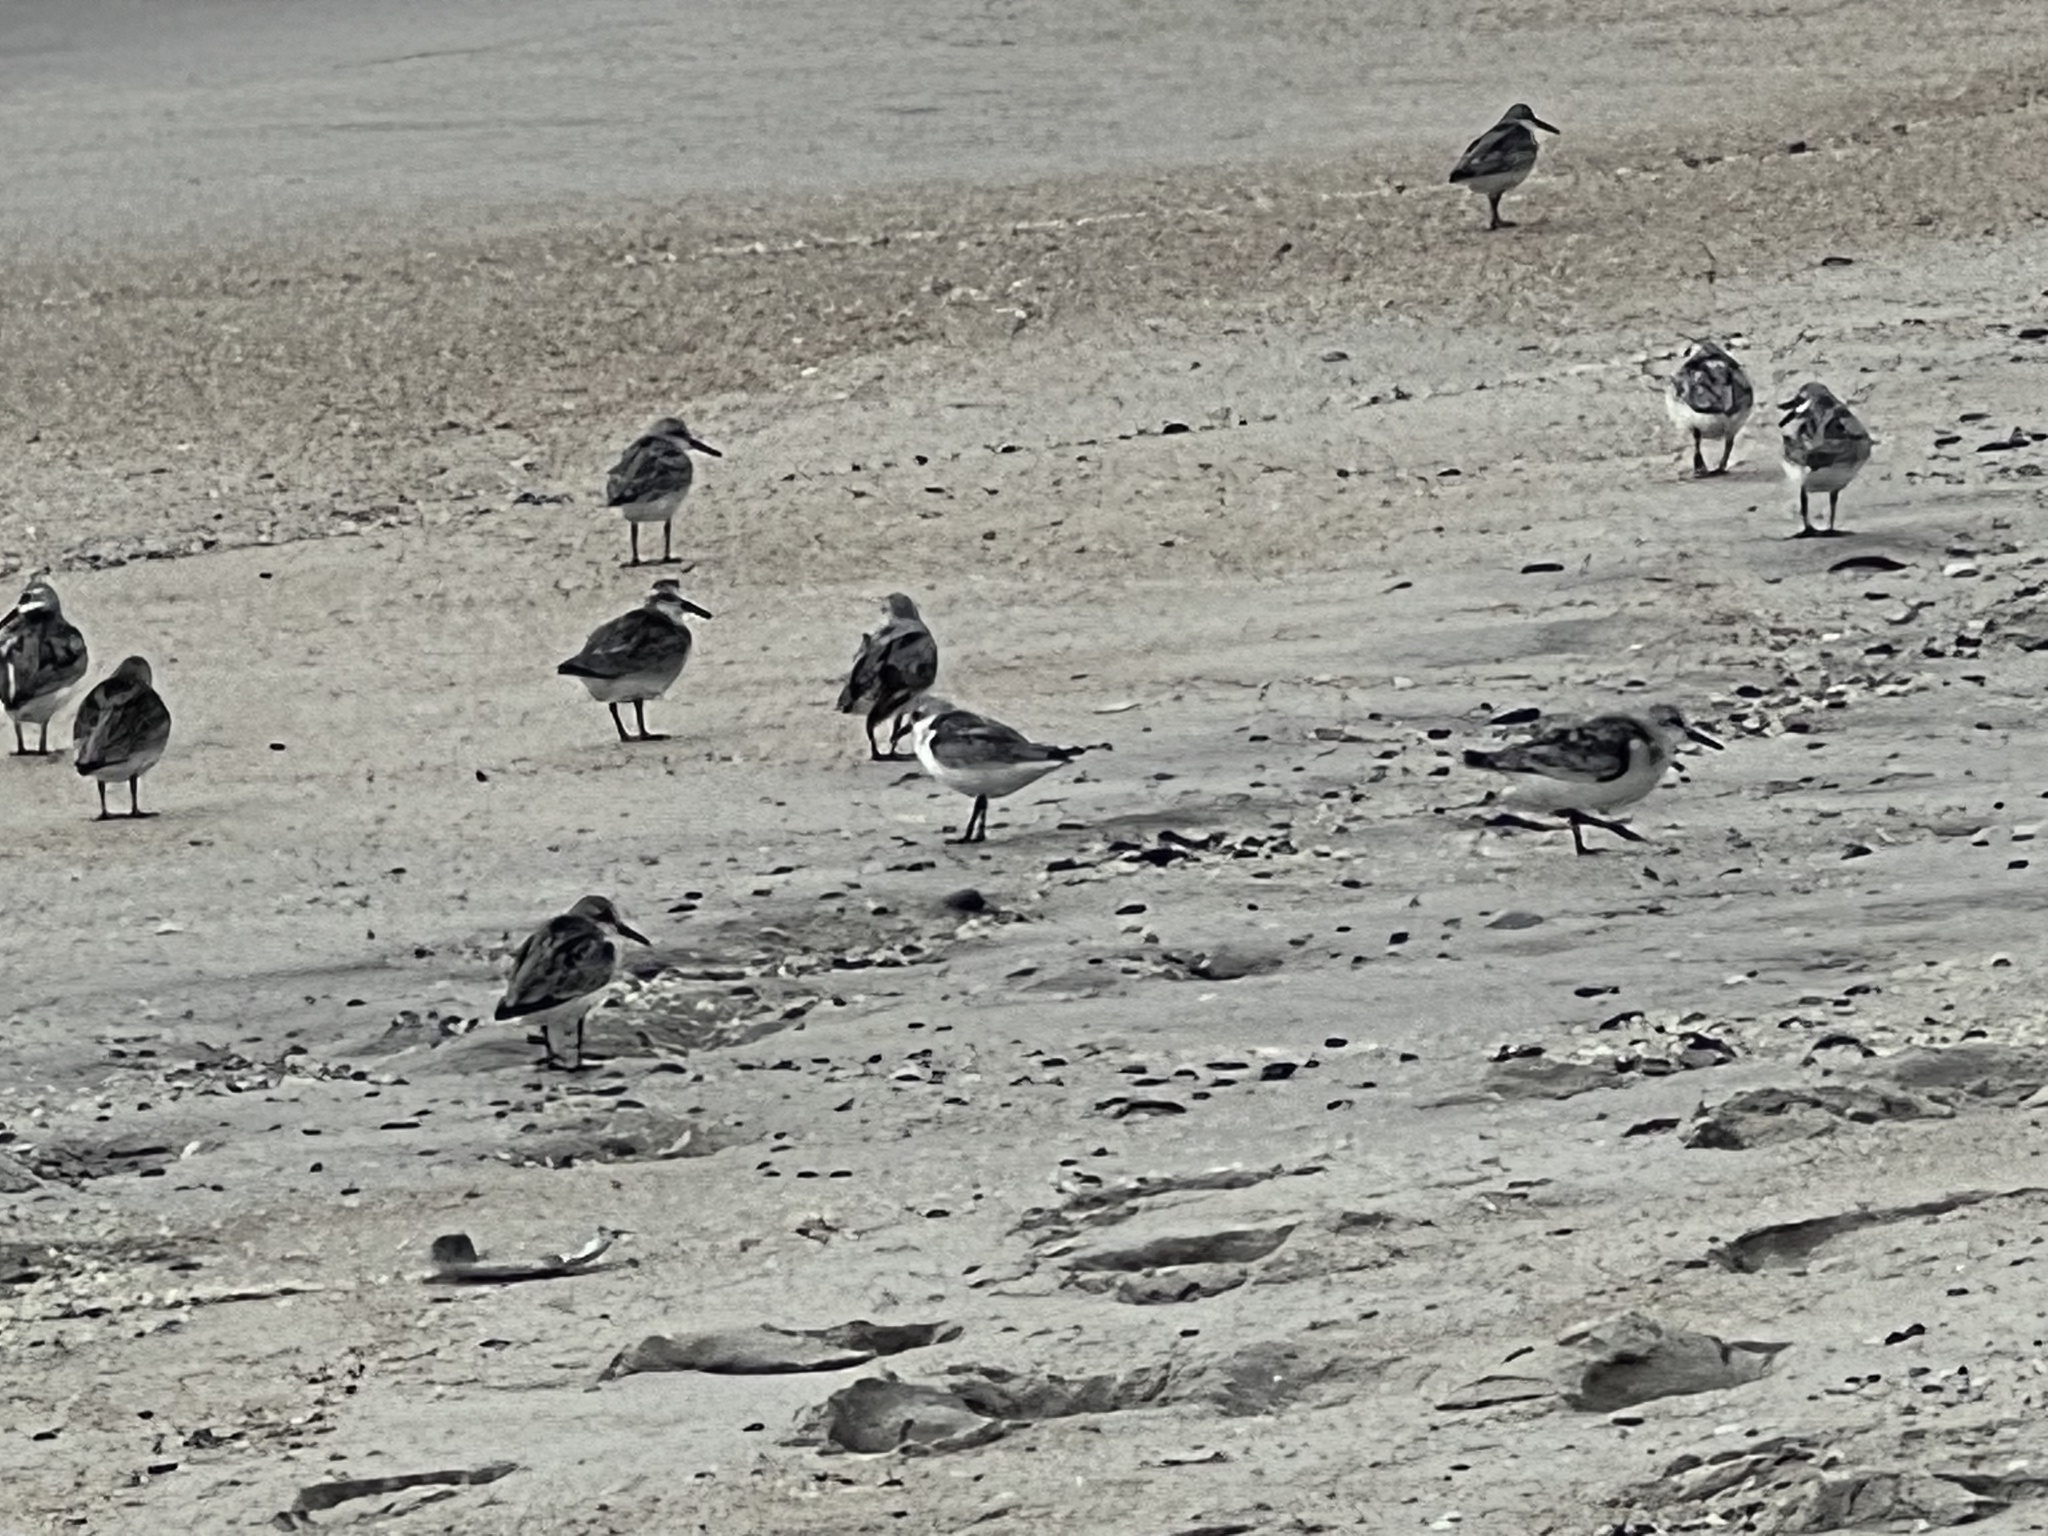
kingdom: Animalia
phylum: Chordata
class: Aves
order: Charadriiformes
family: Scolopacidae
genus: Calidris
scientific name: Calidris alba
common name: Sanderling
